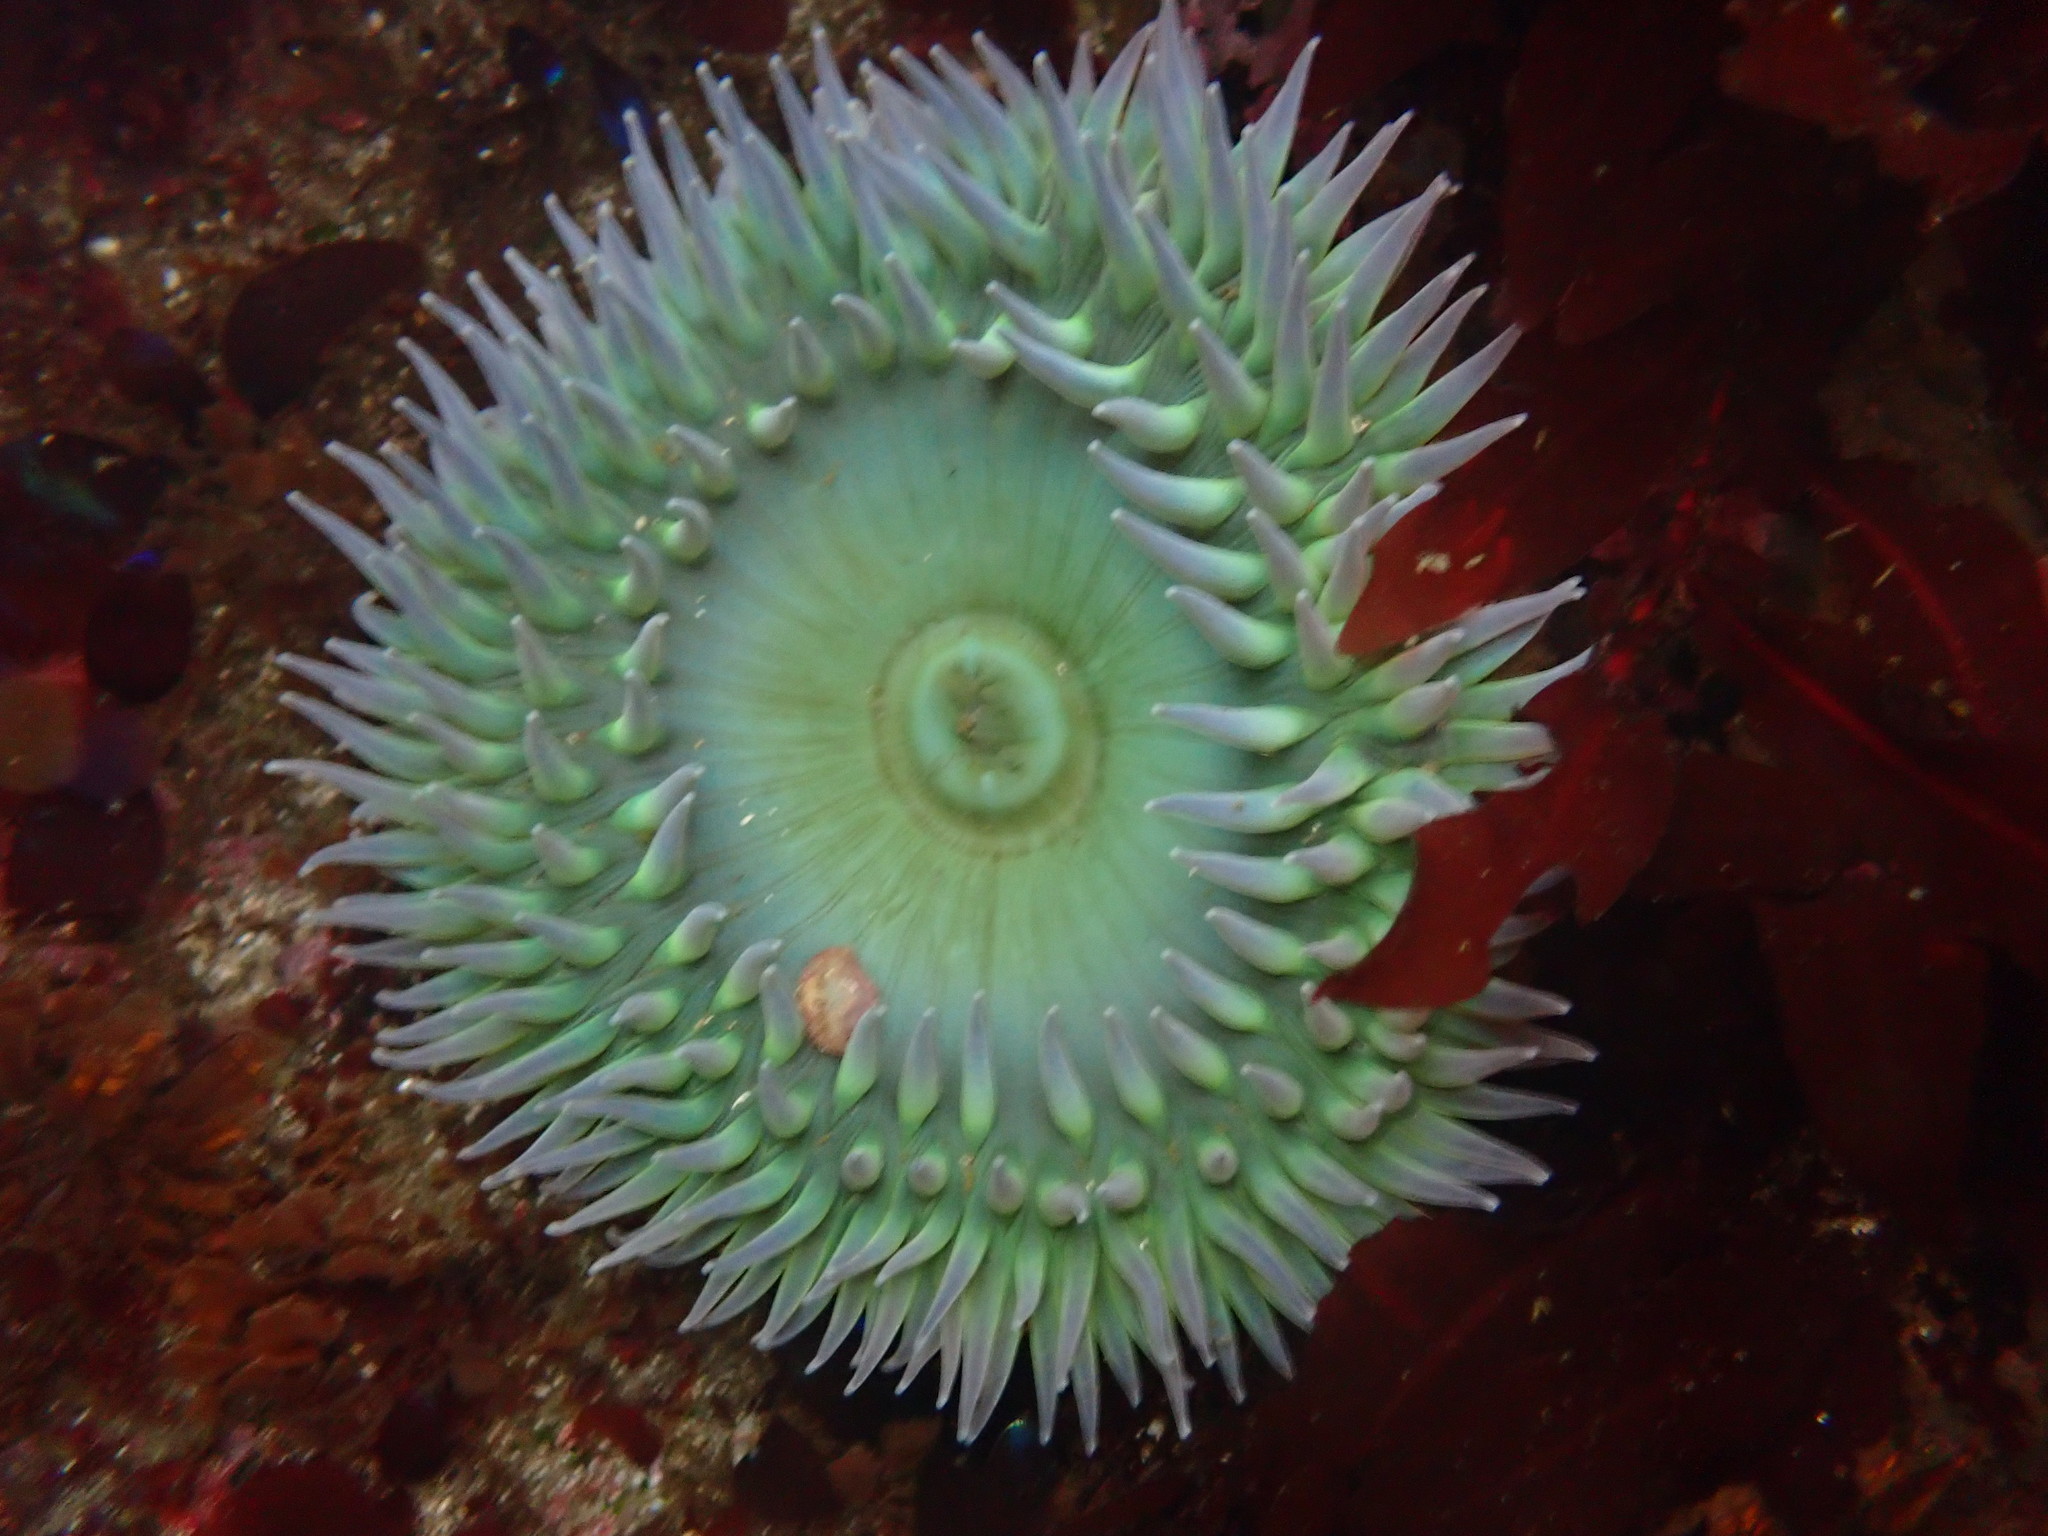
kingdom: Animalia
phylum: Cnidaria
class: Anthozoa
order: Actiniaria
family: Actiniidae
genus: Anthopleura
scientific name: Anthopleura xanthogrammica
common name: Giant green anemone
